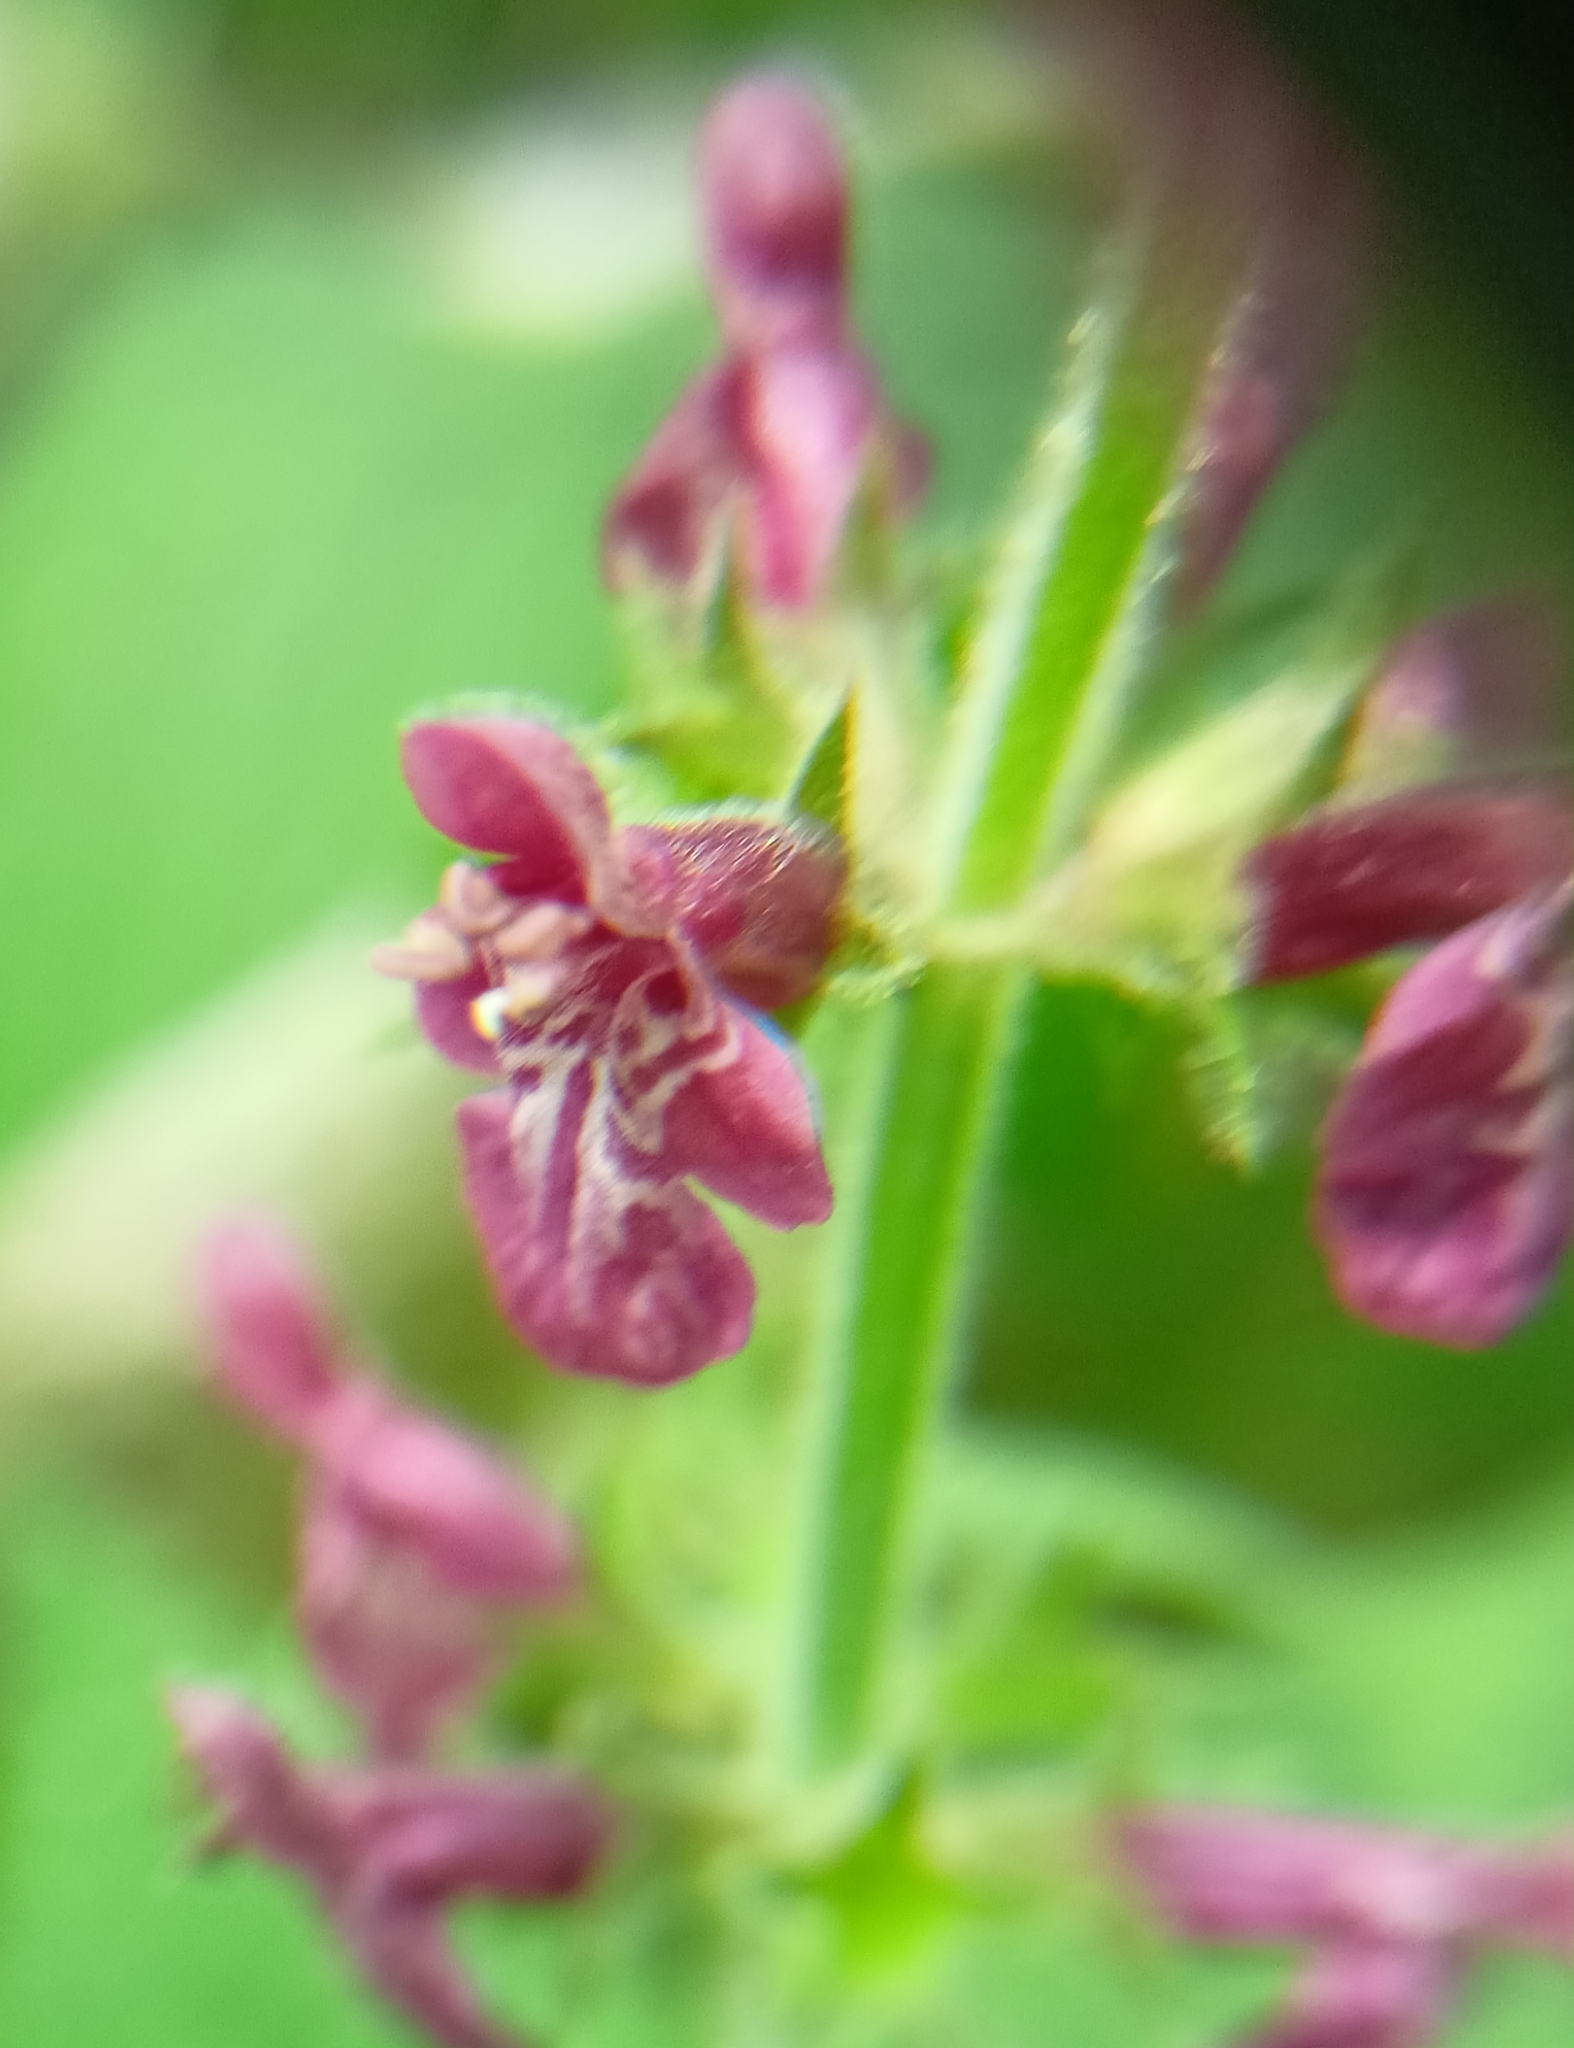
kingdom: Plantae
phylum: Tracheophyta
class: Magnoliopsida
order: Lamiales
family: Lamiaceae
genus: Stachys
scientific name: Stachys sylvatica
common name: Hedge woundwort
